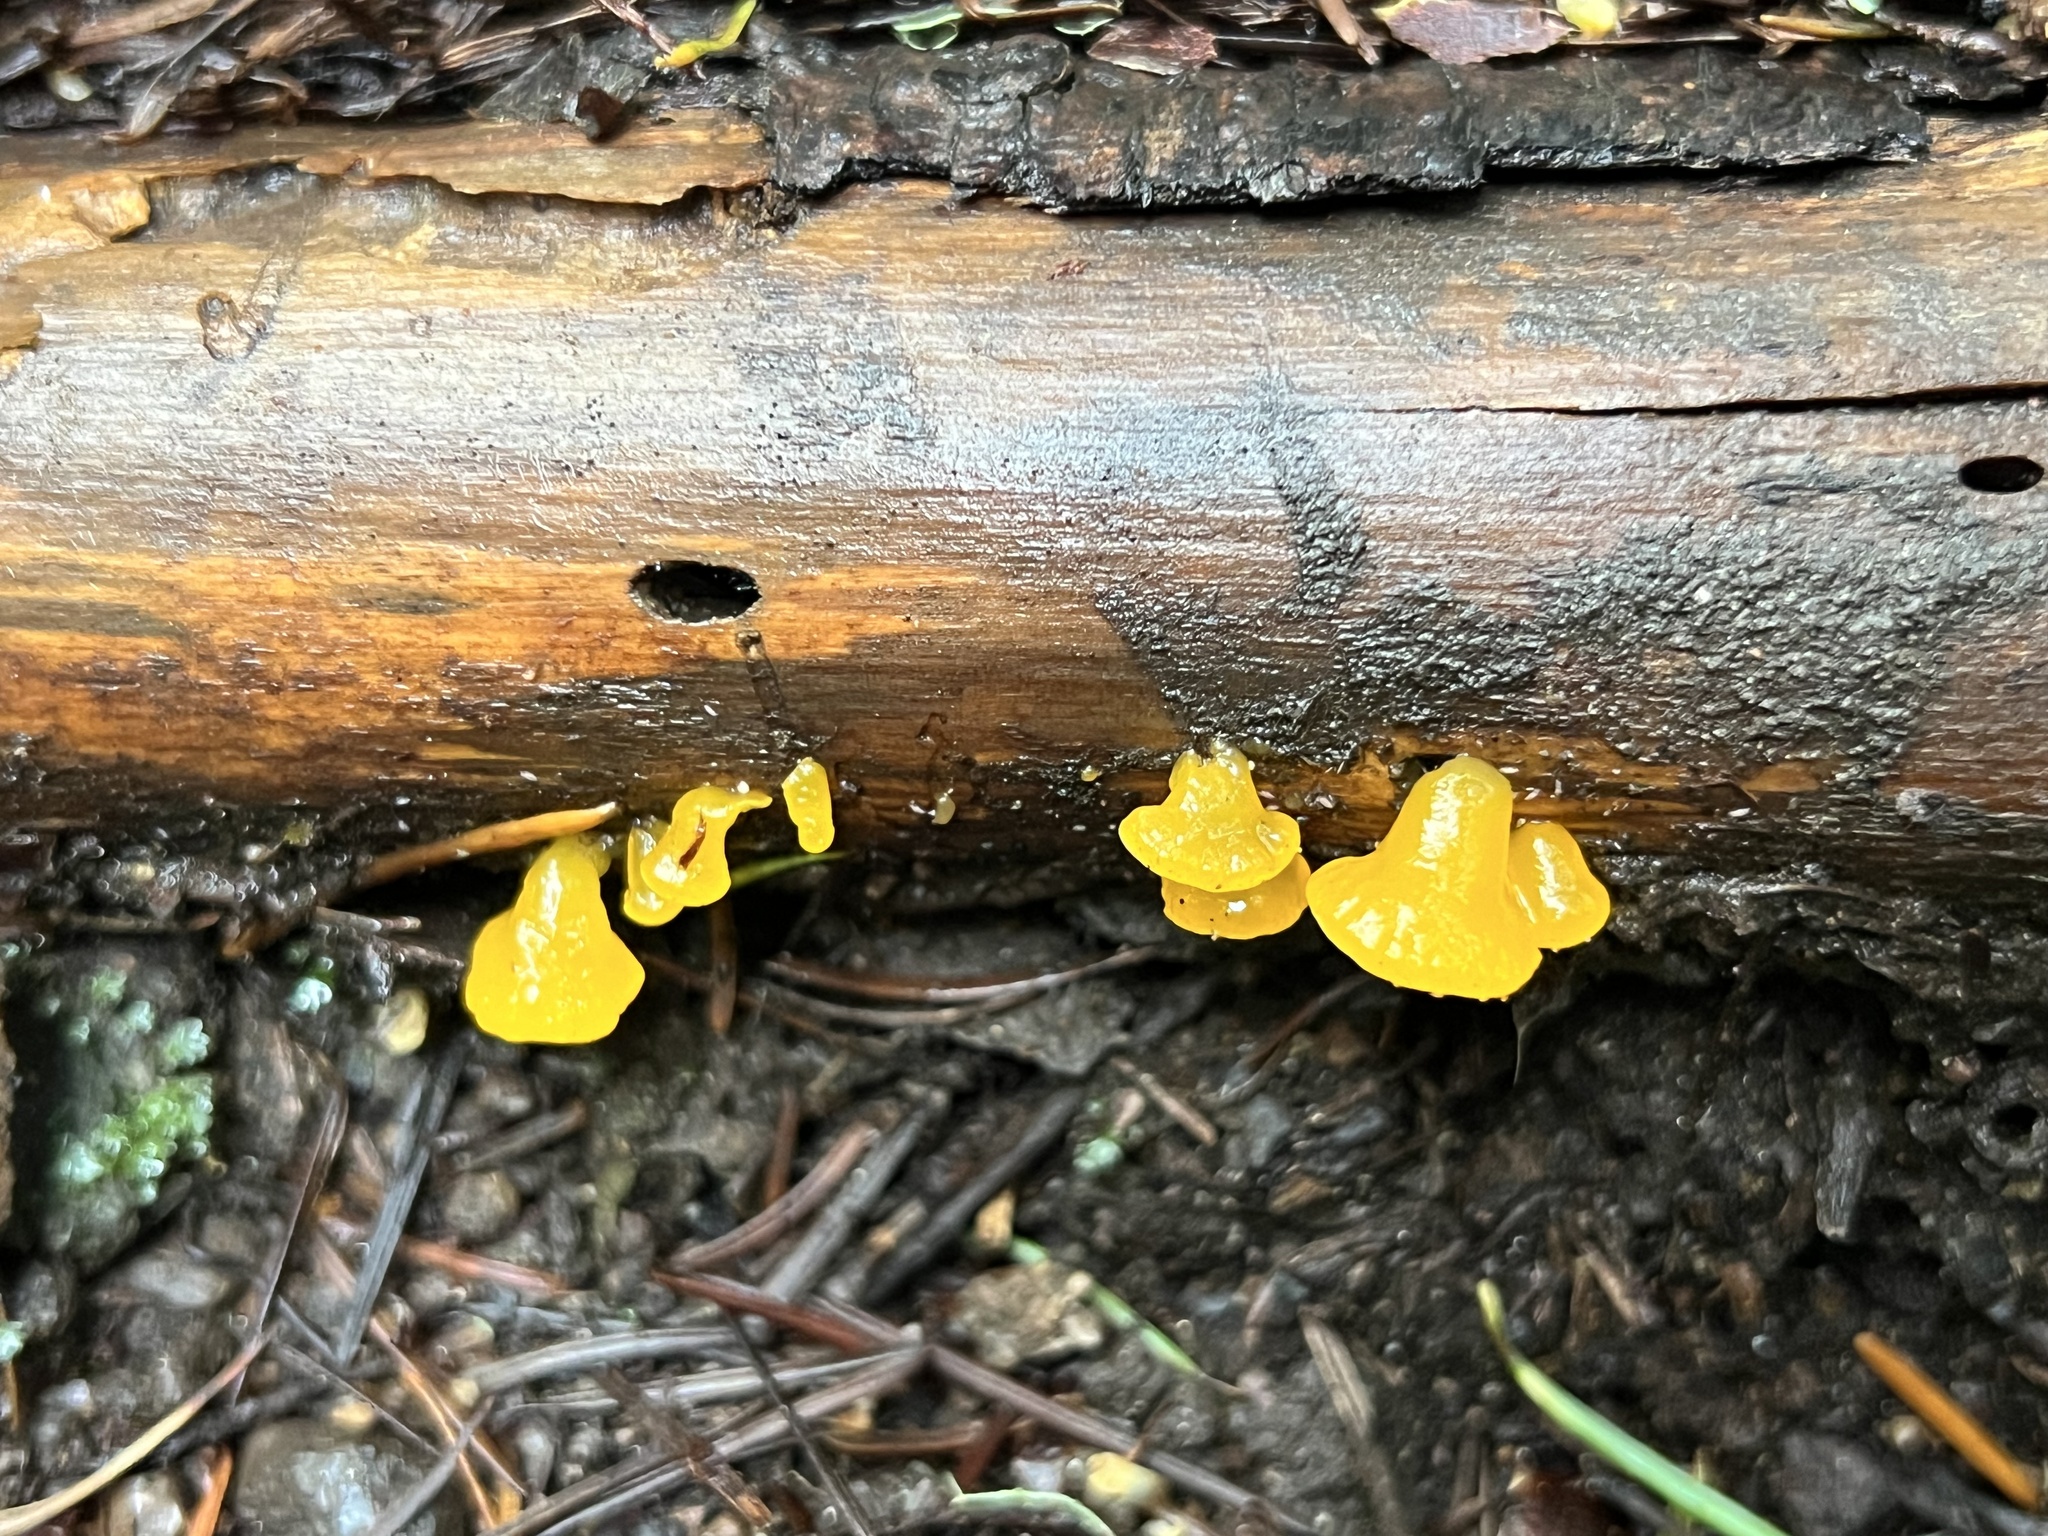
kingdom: Fungi
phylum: Basidiomycota
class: Dacrymycetes
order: Dacrymycetales
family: Dacrymycetaceae
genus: Dacrymyces
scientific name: Dacrymyces capitatus
